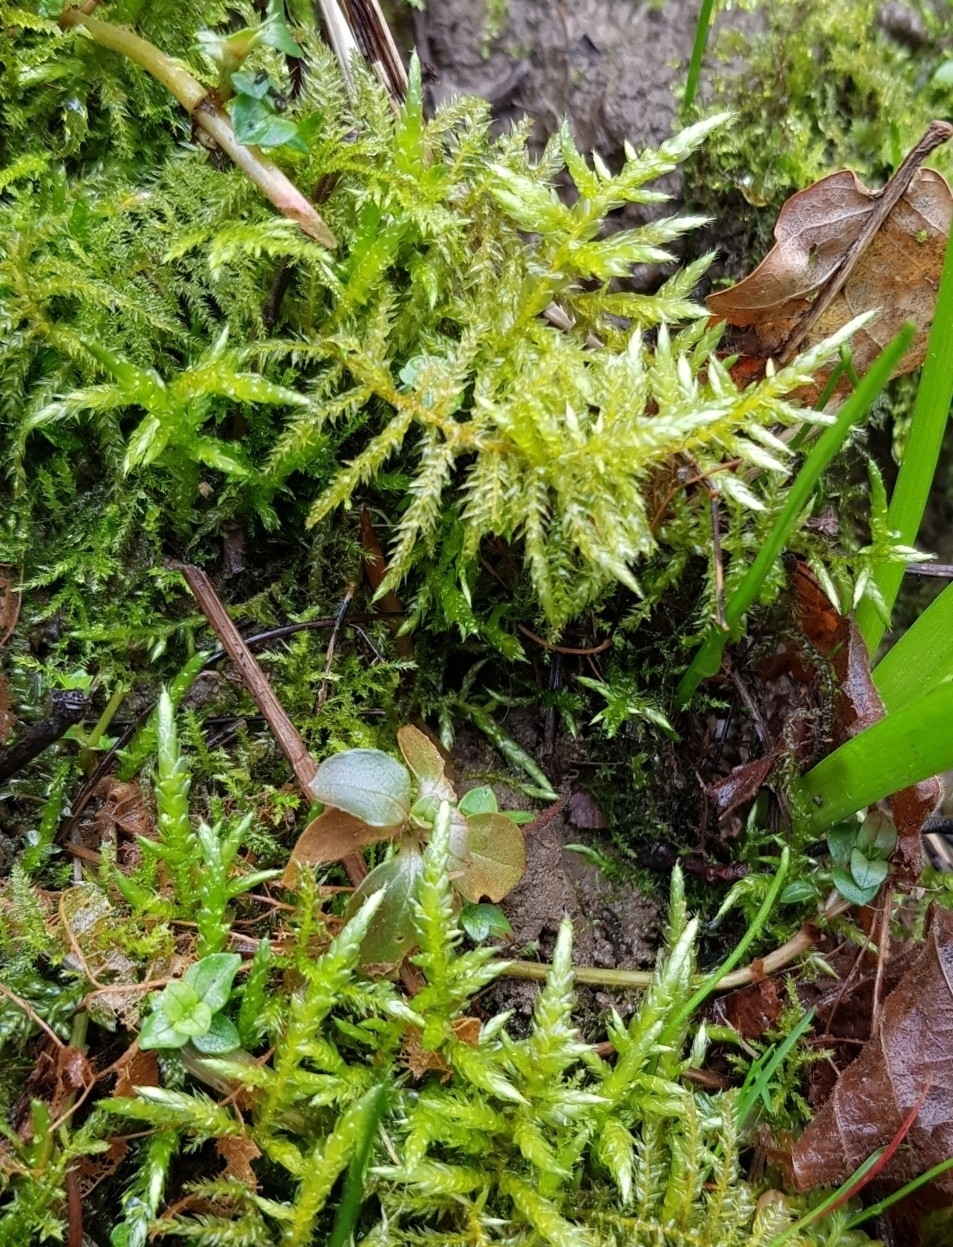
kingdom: Plantae
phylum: Bryophyta
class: Bryopsida
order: Hypnales
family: Brachytheciaceae
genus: Cirriphyllum
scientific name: Cirriphyllum piliferum
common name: Hair-pointed moss
